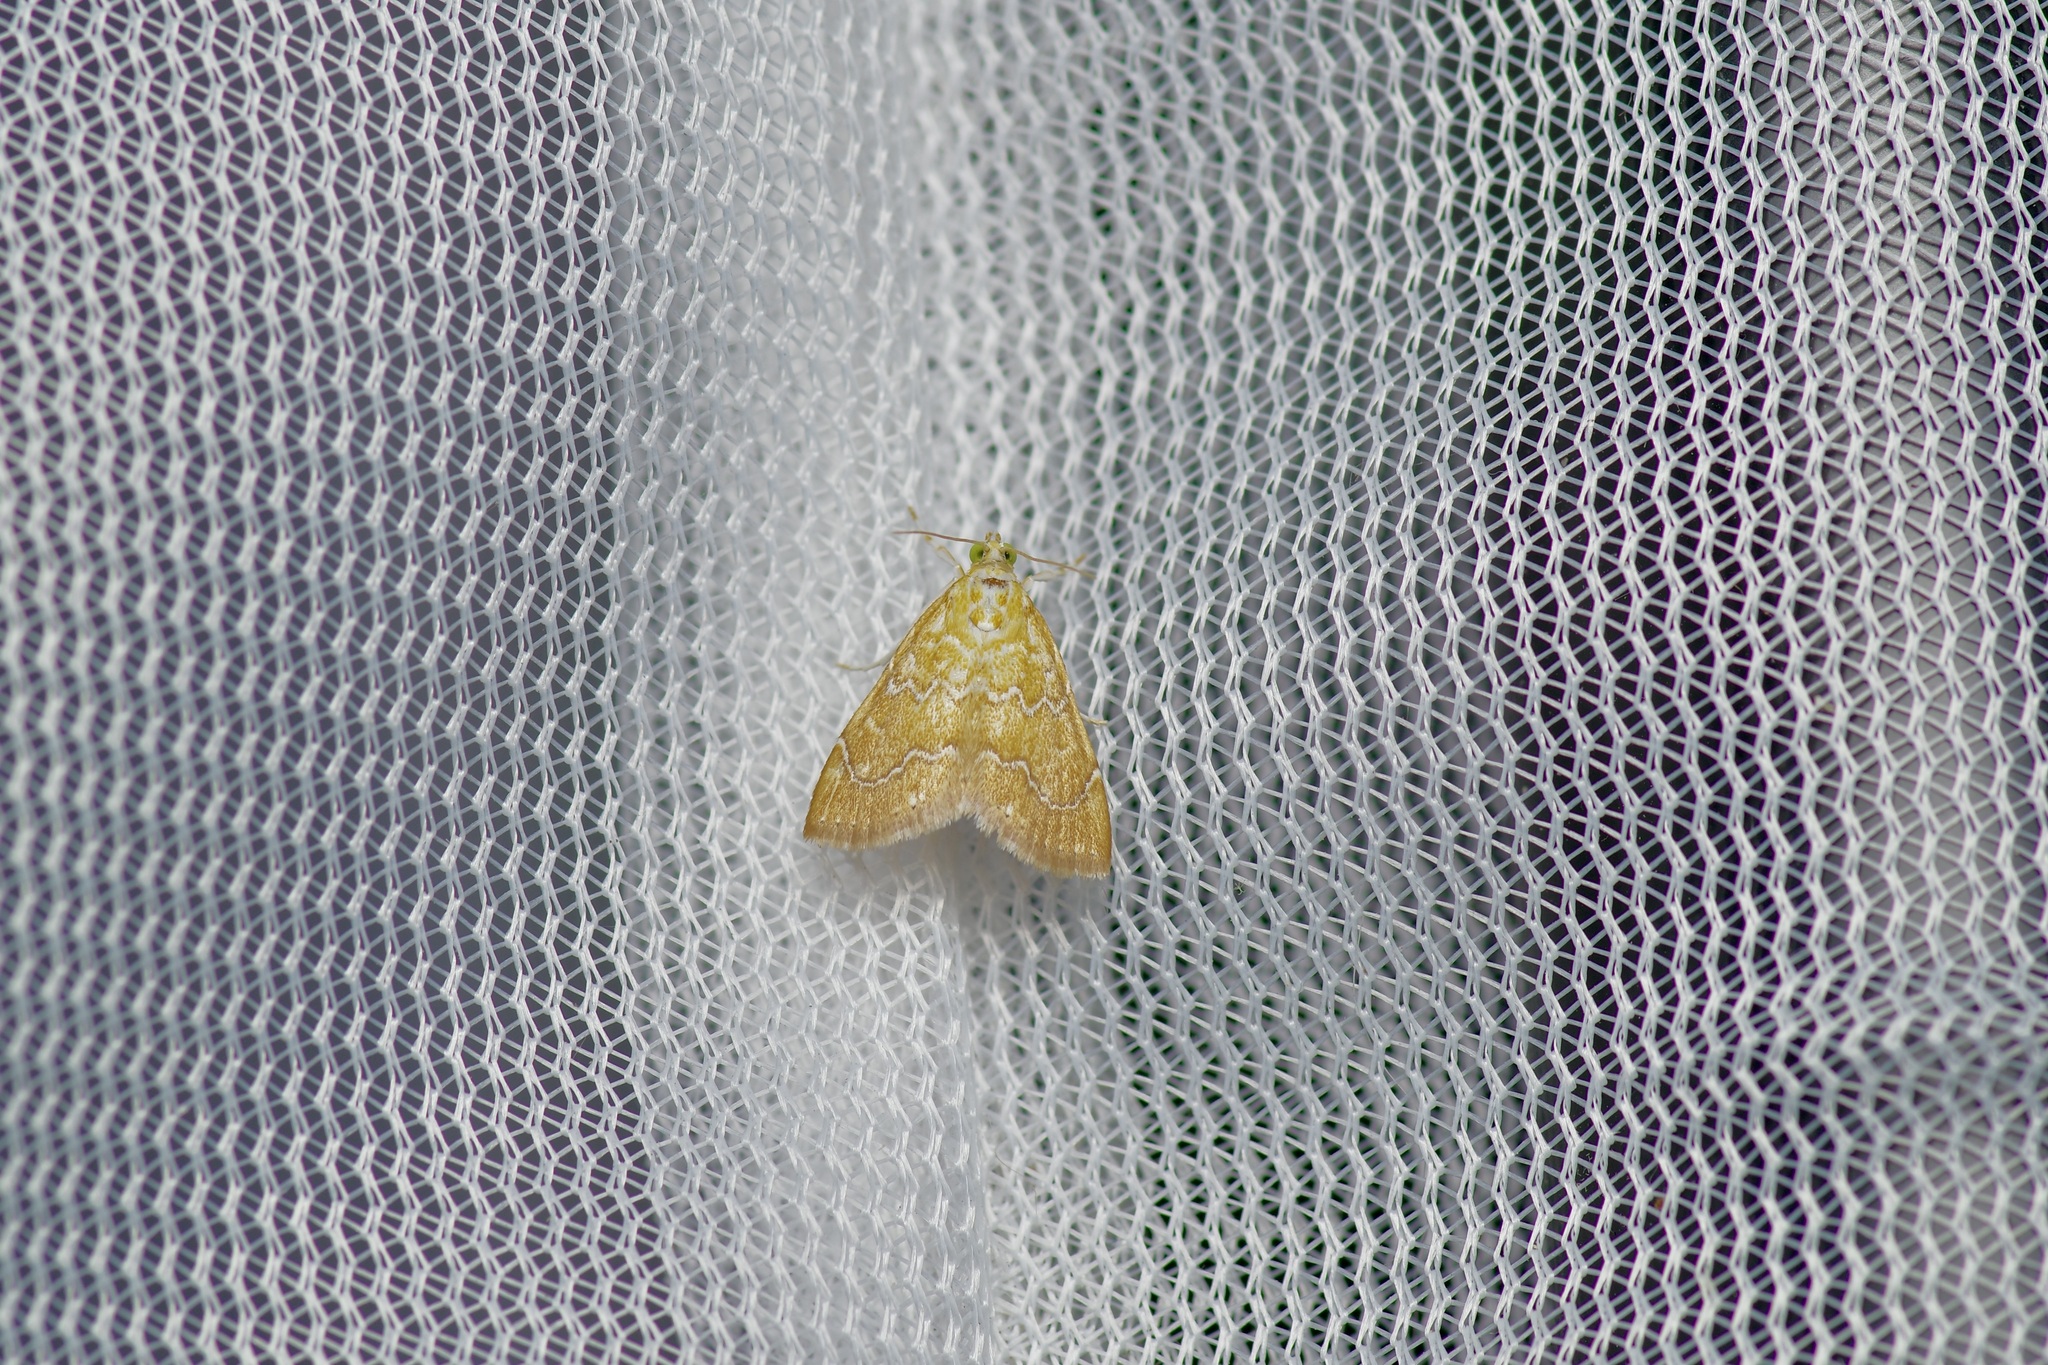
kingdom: Animalia
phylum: Arthropoda
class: Insecta
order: Lepidoptera
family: Crambidae
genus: Glaphyria
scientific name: Glaphyria sesquistrialis
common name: White-roped glaphyria
